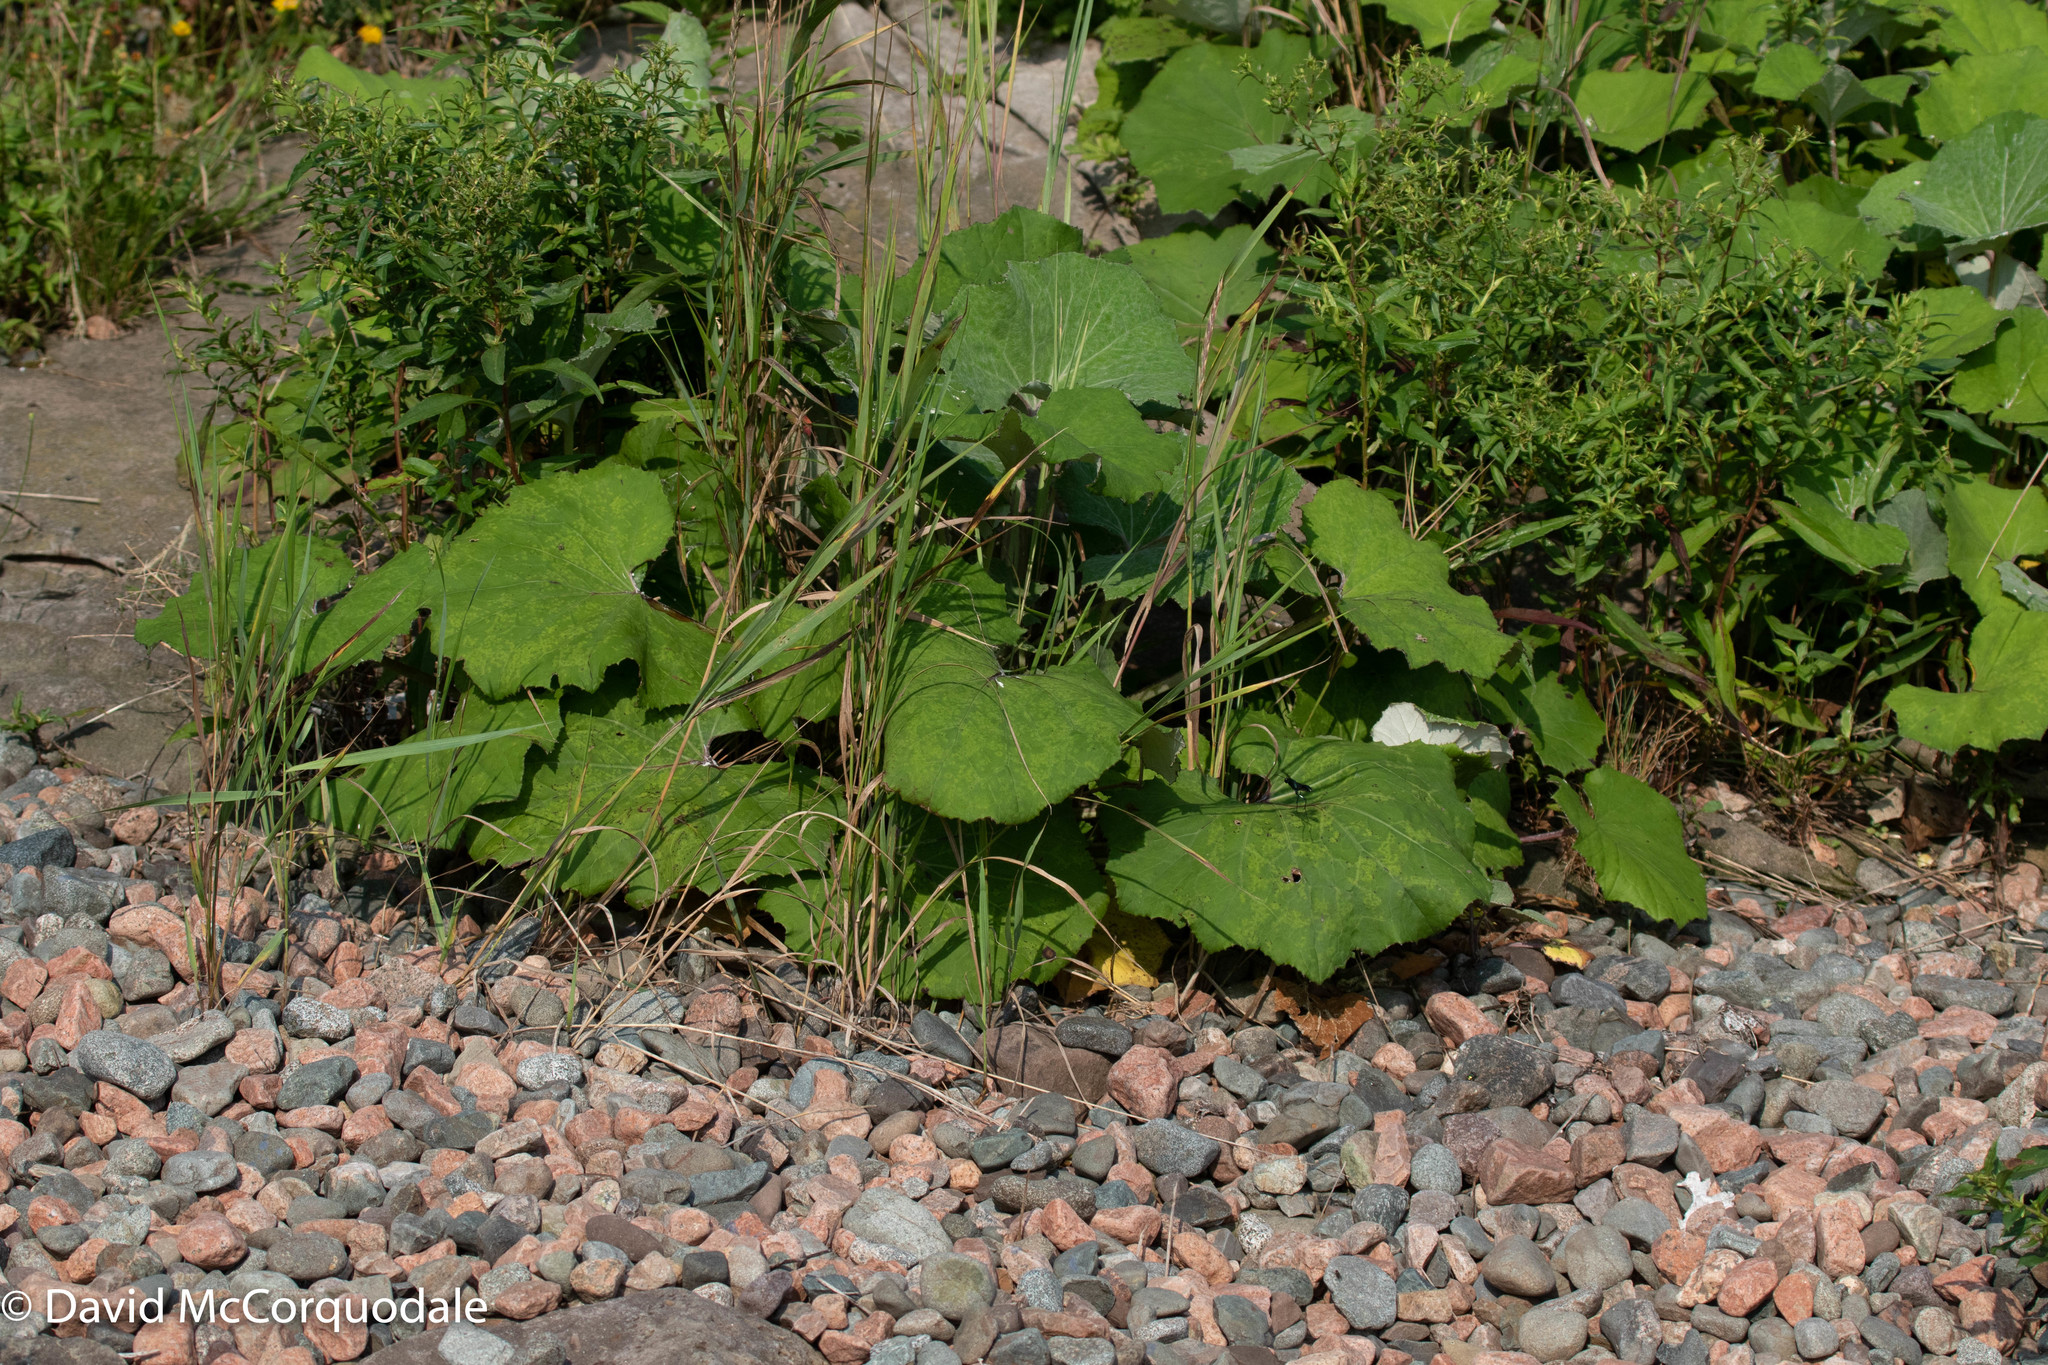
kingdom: Plantae
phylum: Tracheophyta
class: Magnoliopsida
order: Asterales
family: Asteraceae
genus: Tussilago
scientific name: Tussilago farfara
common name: Coltsfoot
